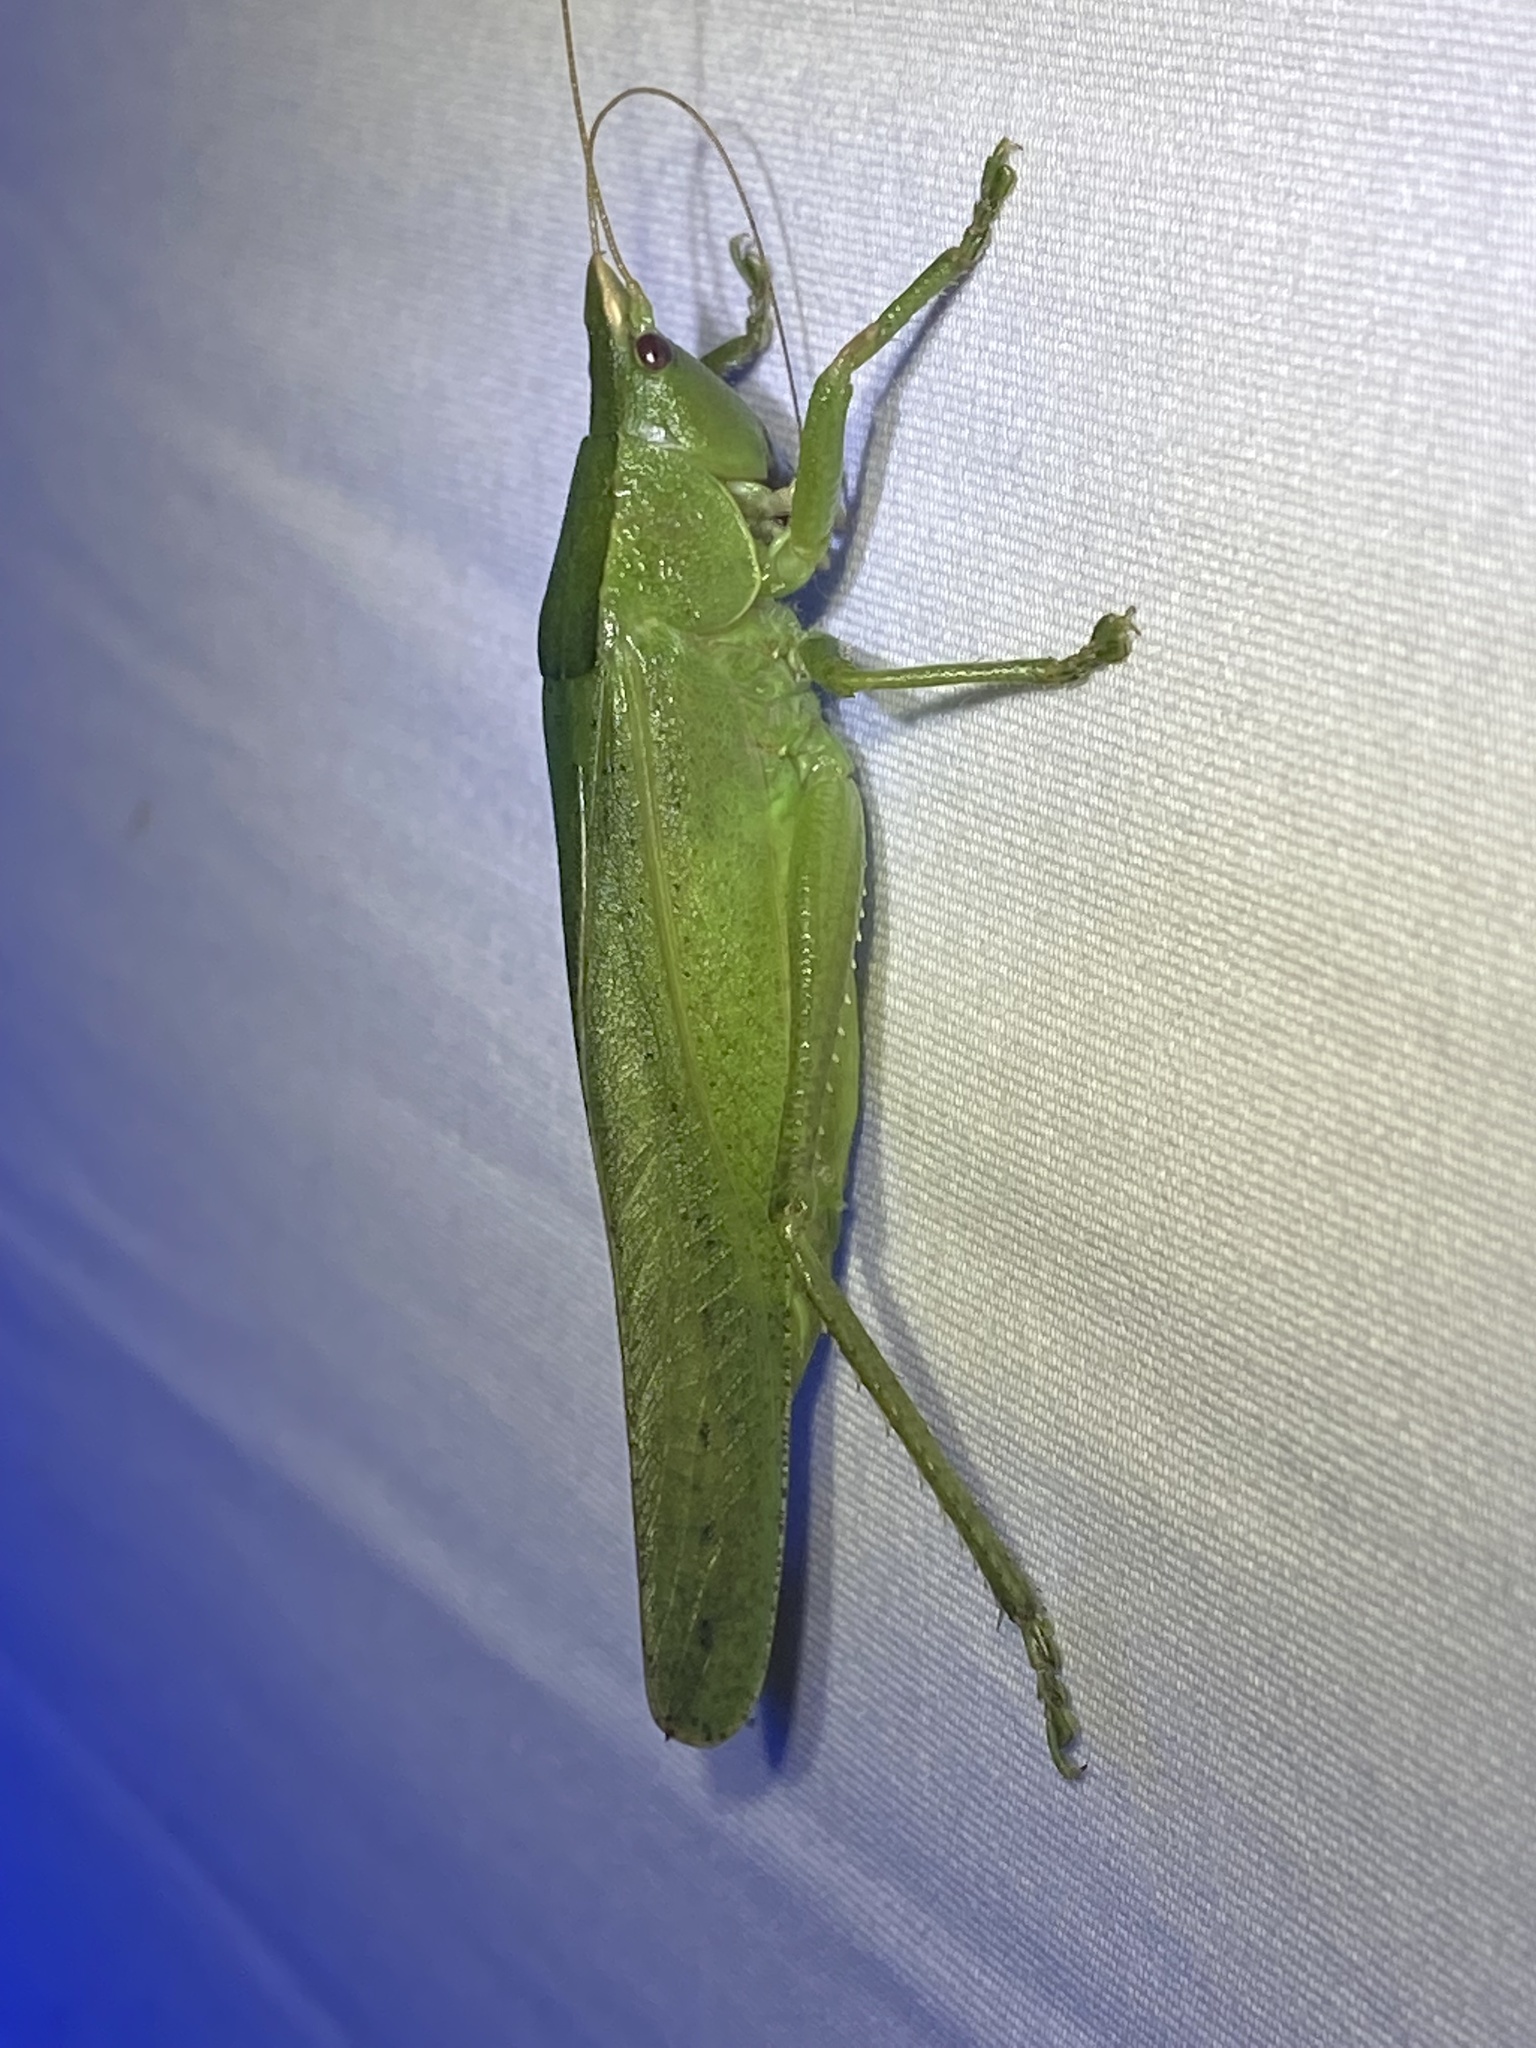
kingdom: Animalia
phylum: Arthropoda
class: Insecta
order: Orthoptera
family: Tettigoniidae
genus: Pyrgocorypha
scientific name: Pyrgocorypha uncinata
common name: Hook-faced conehead
